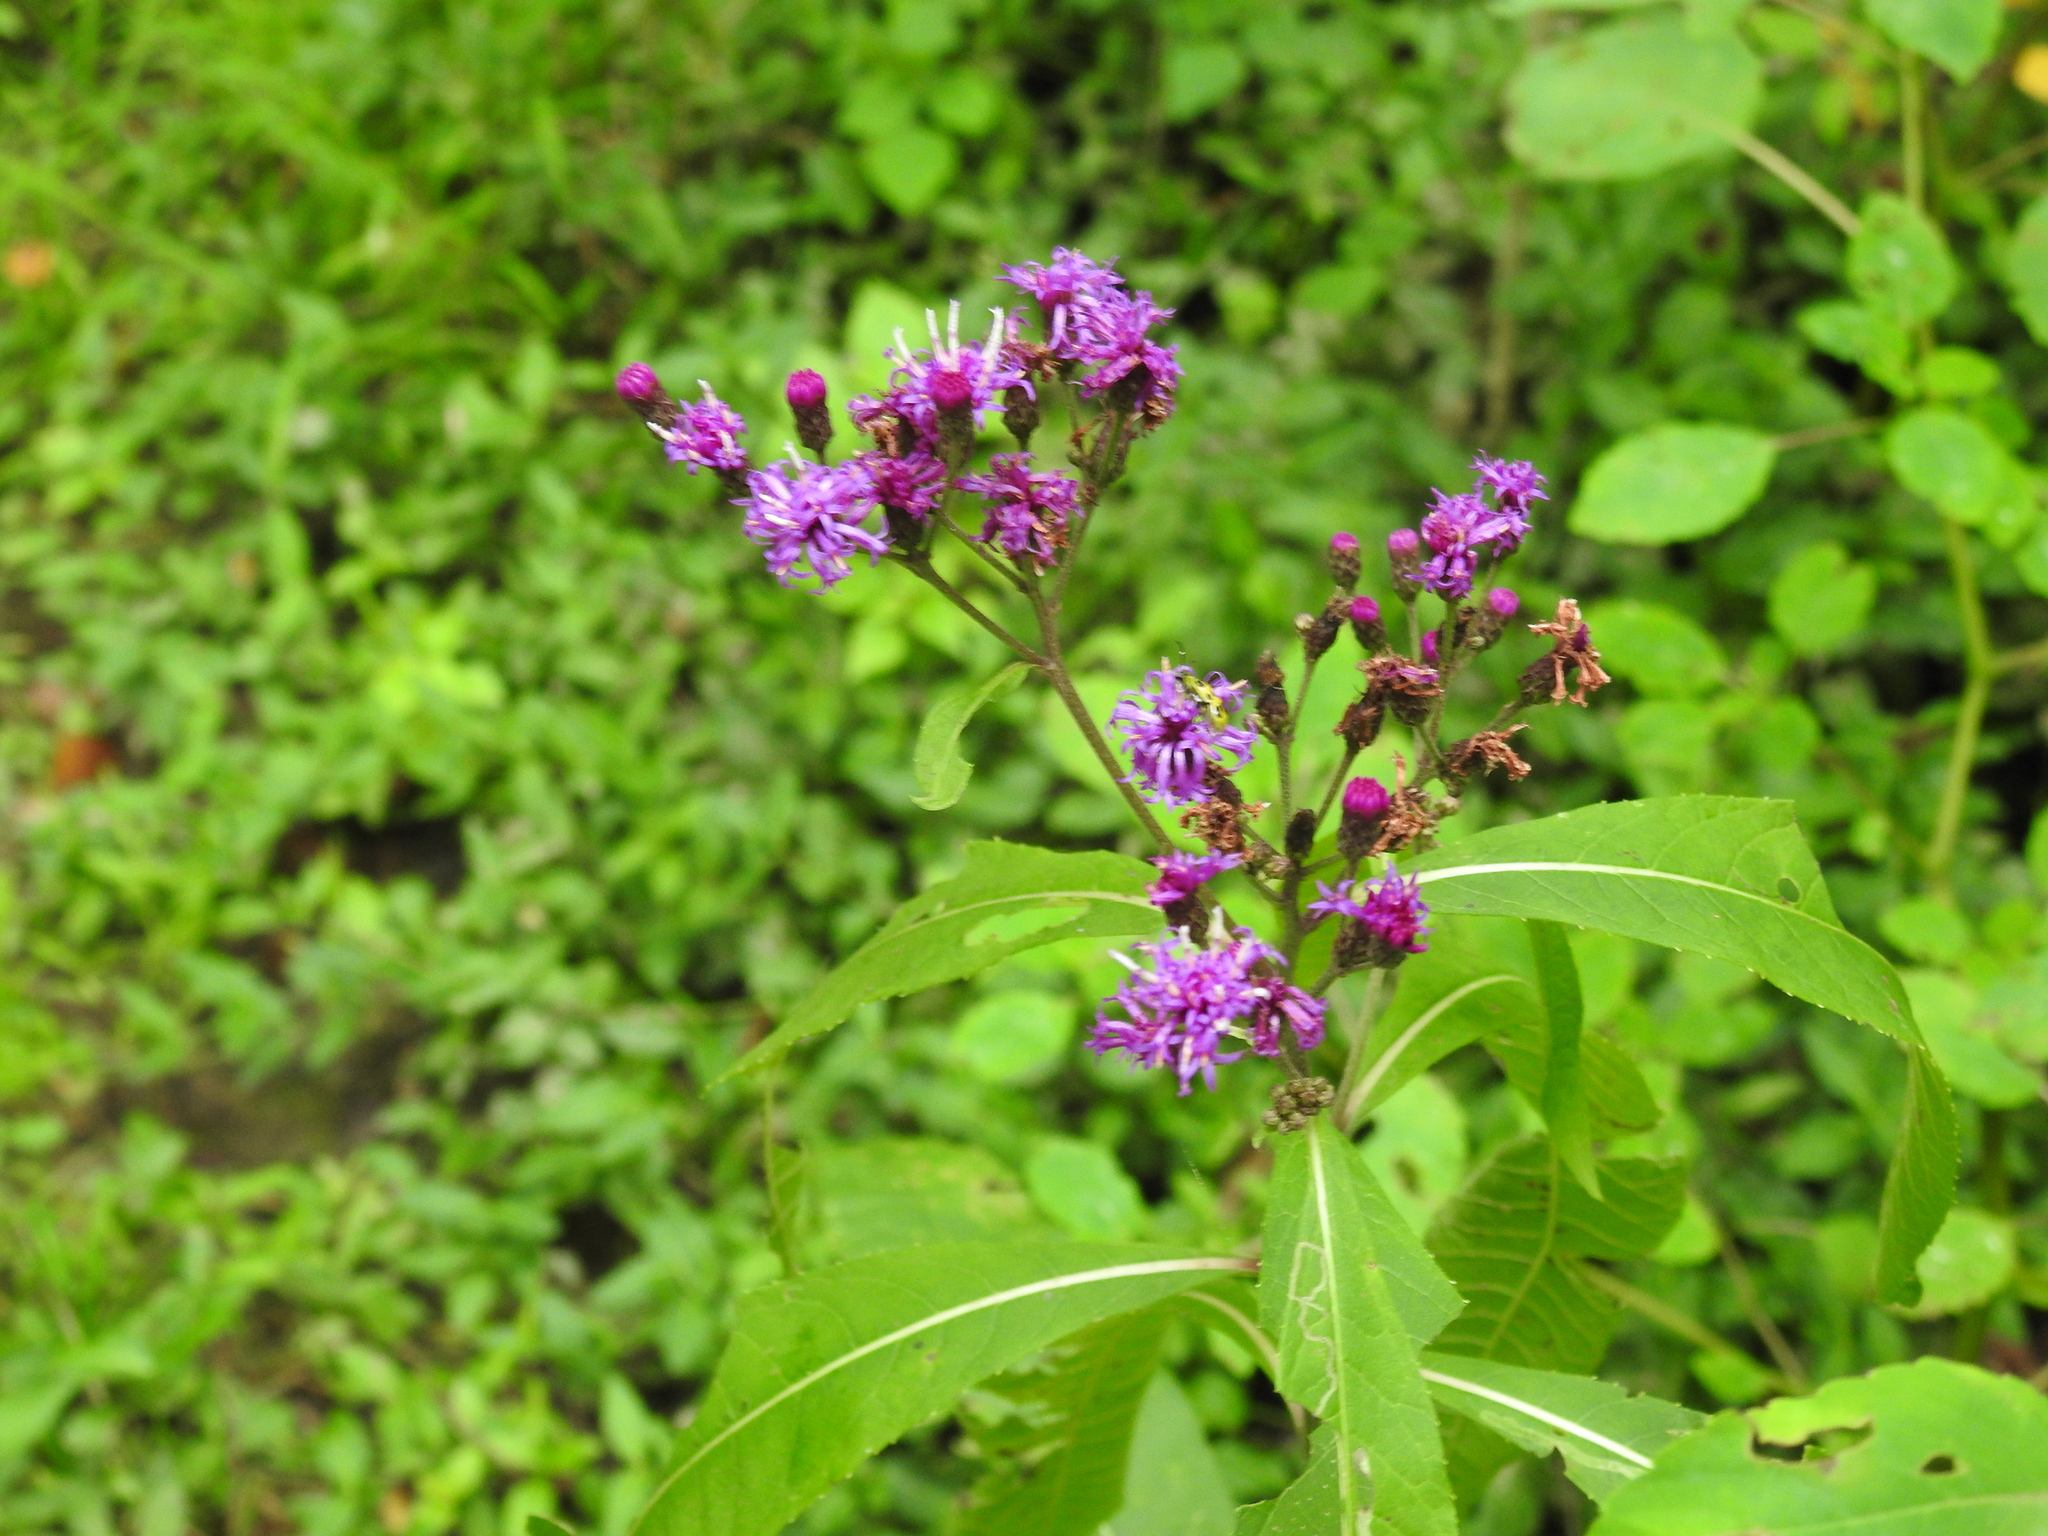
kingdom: Plantae
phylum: Tracheophyta
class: Magnoliopsida
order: Asterales
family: Asteraceae
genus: Vernonia
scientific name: Vernonia gigantea
